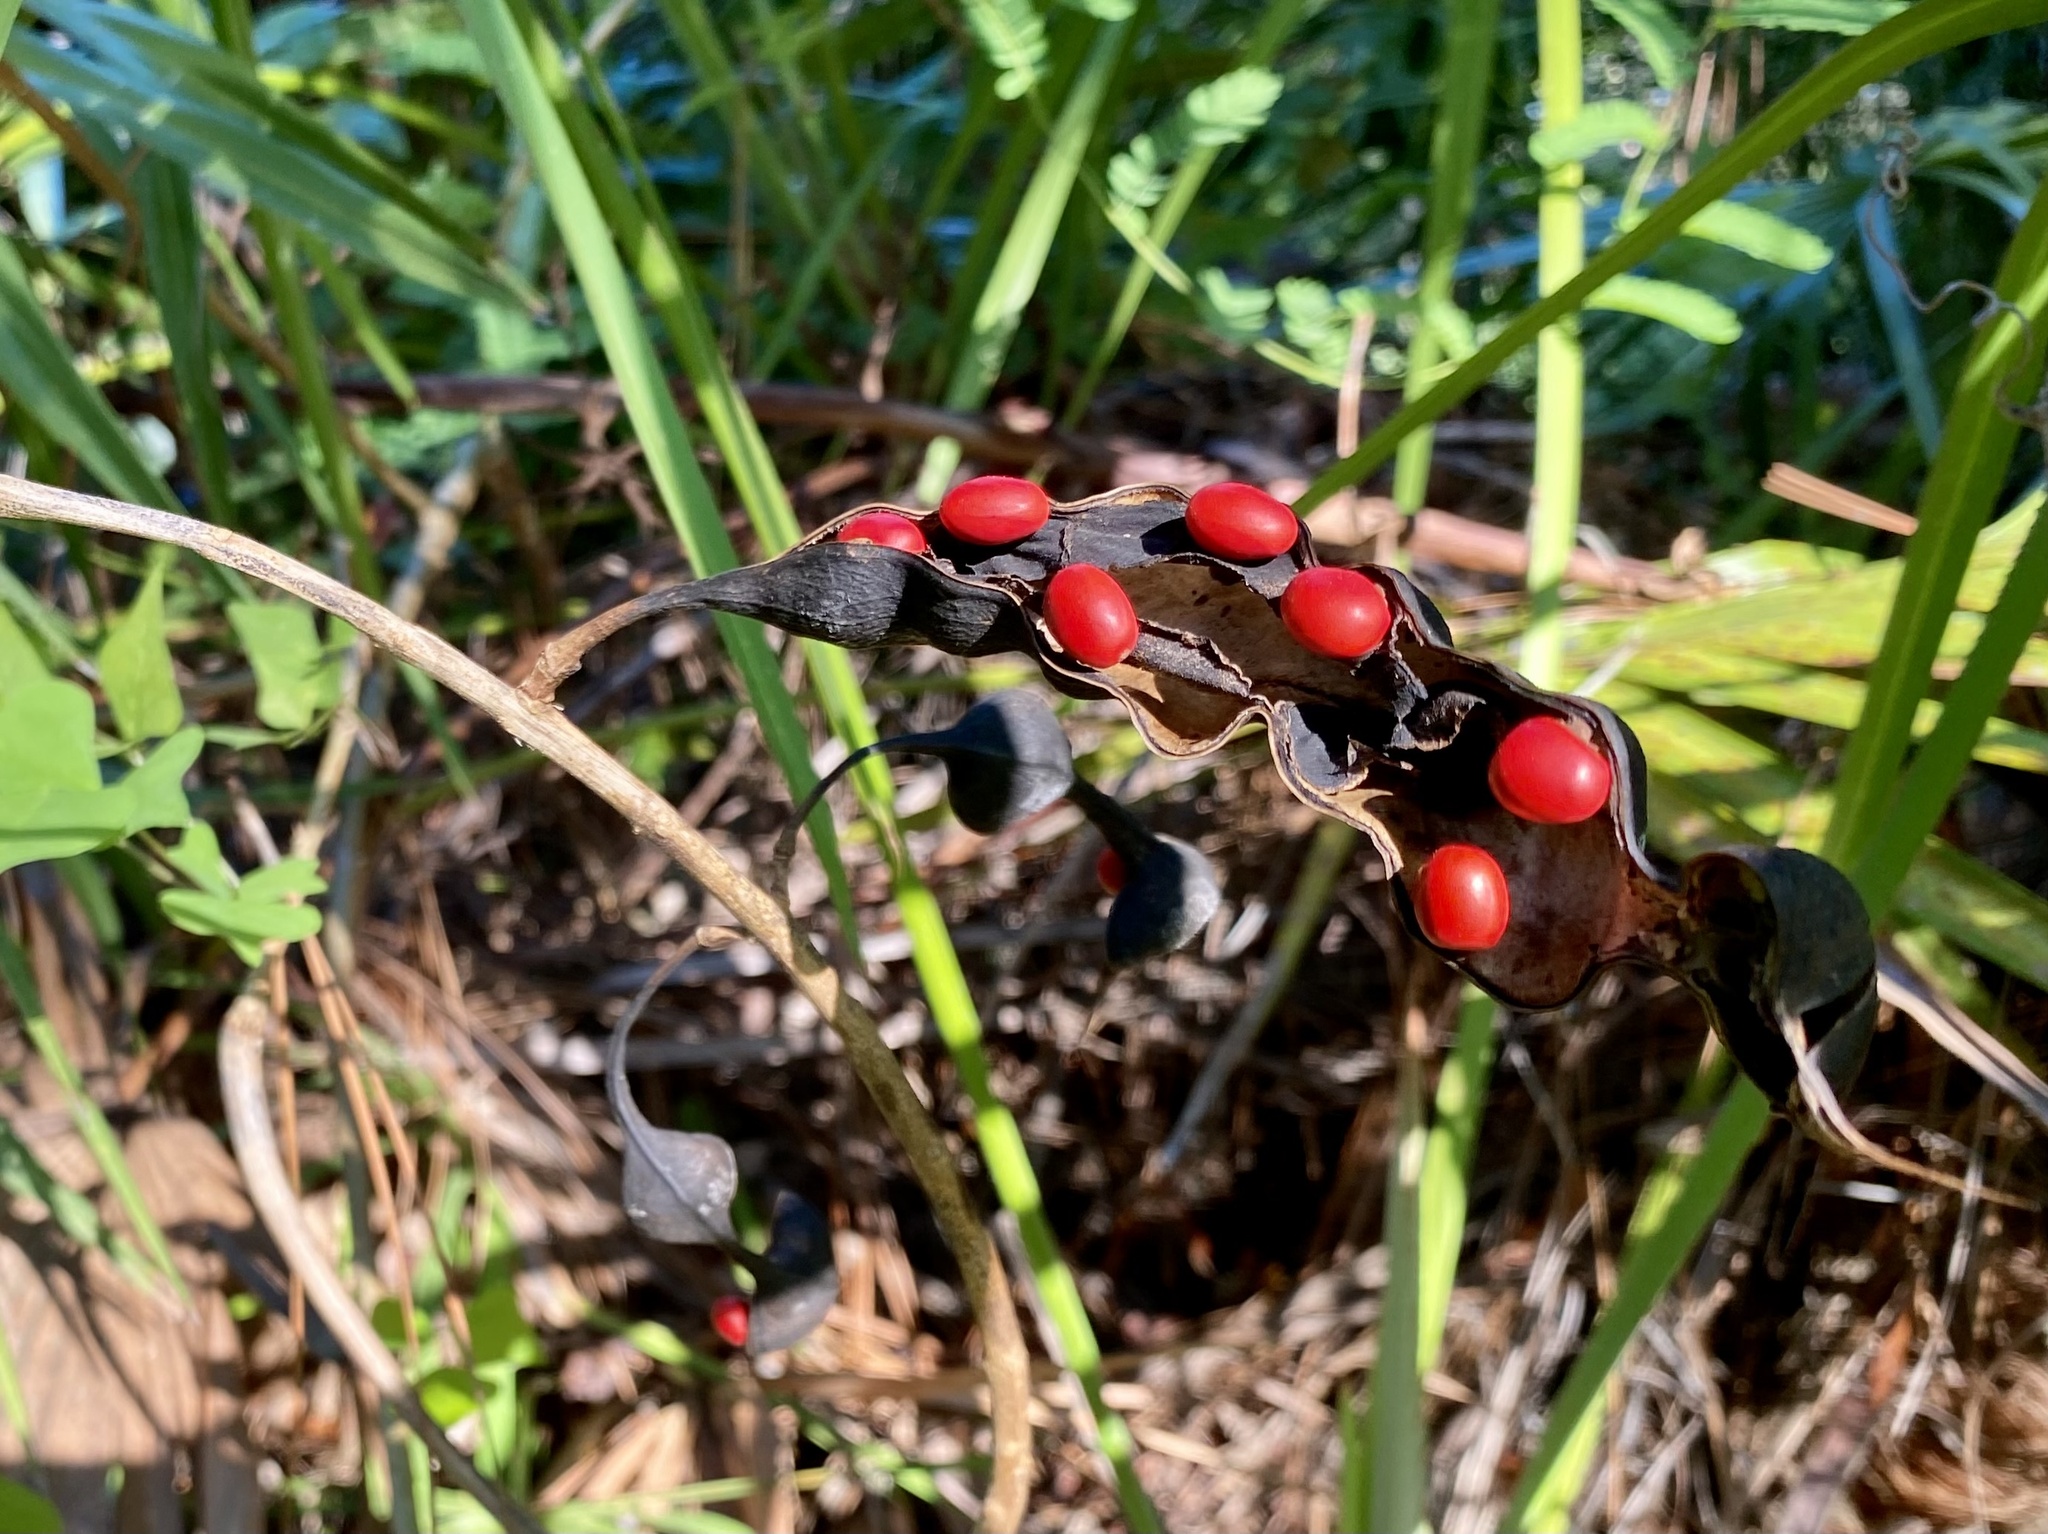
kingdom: Plantae
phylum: Tracheophyta
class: Magnoliopsida
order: Fabales
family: Fabaceae
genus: Erythrina
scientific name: Erythrina herbacea
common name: Coral-bean
